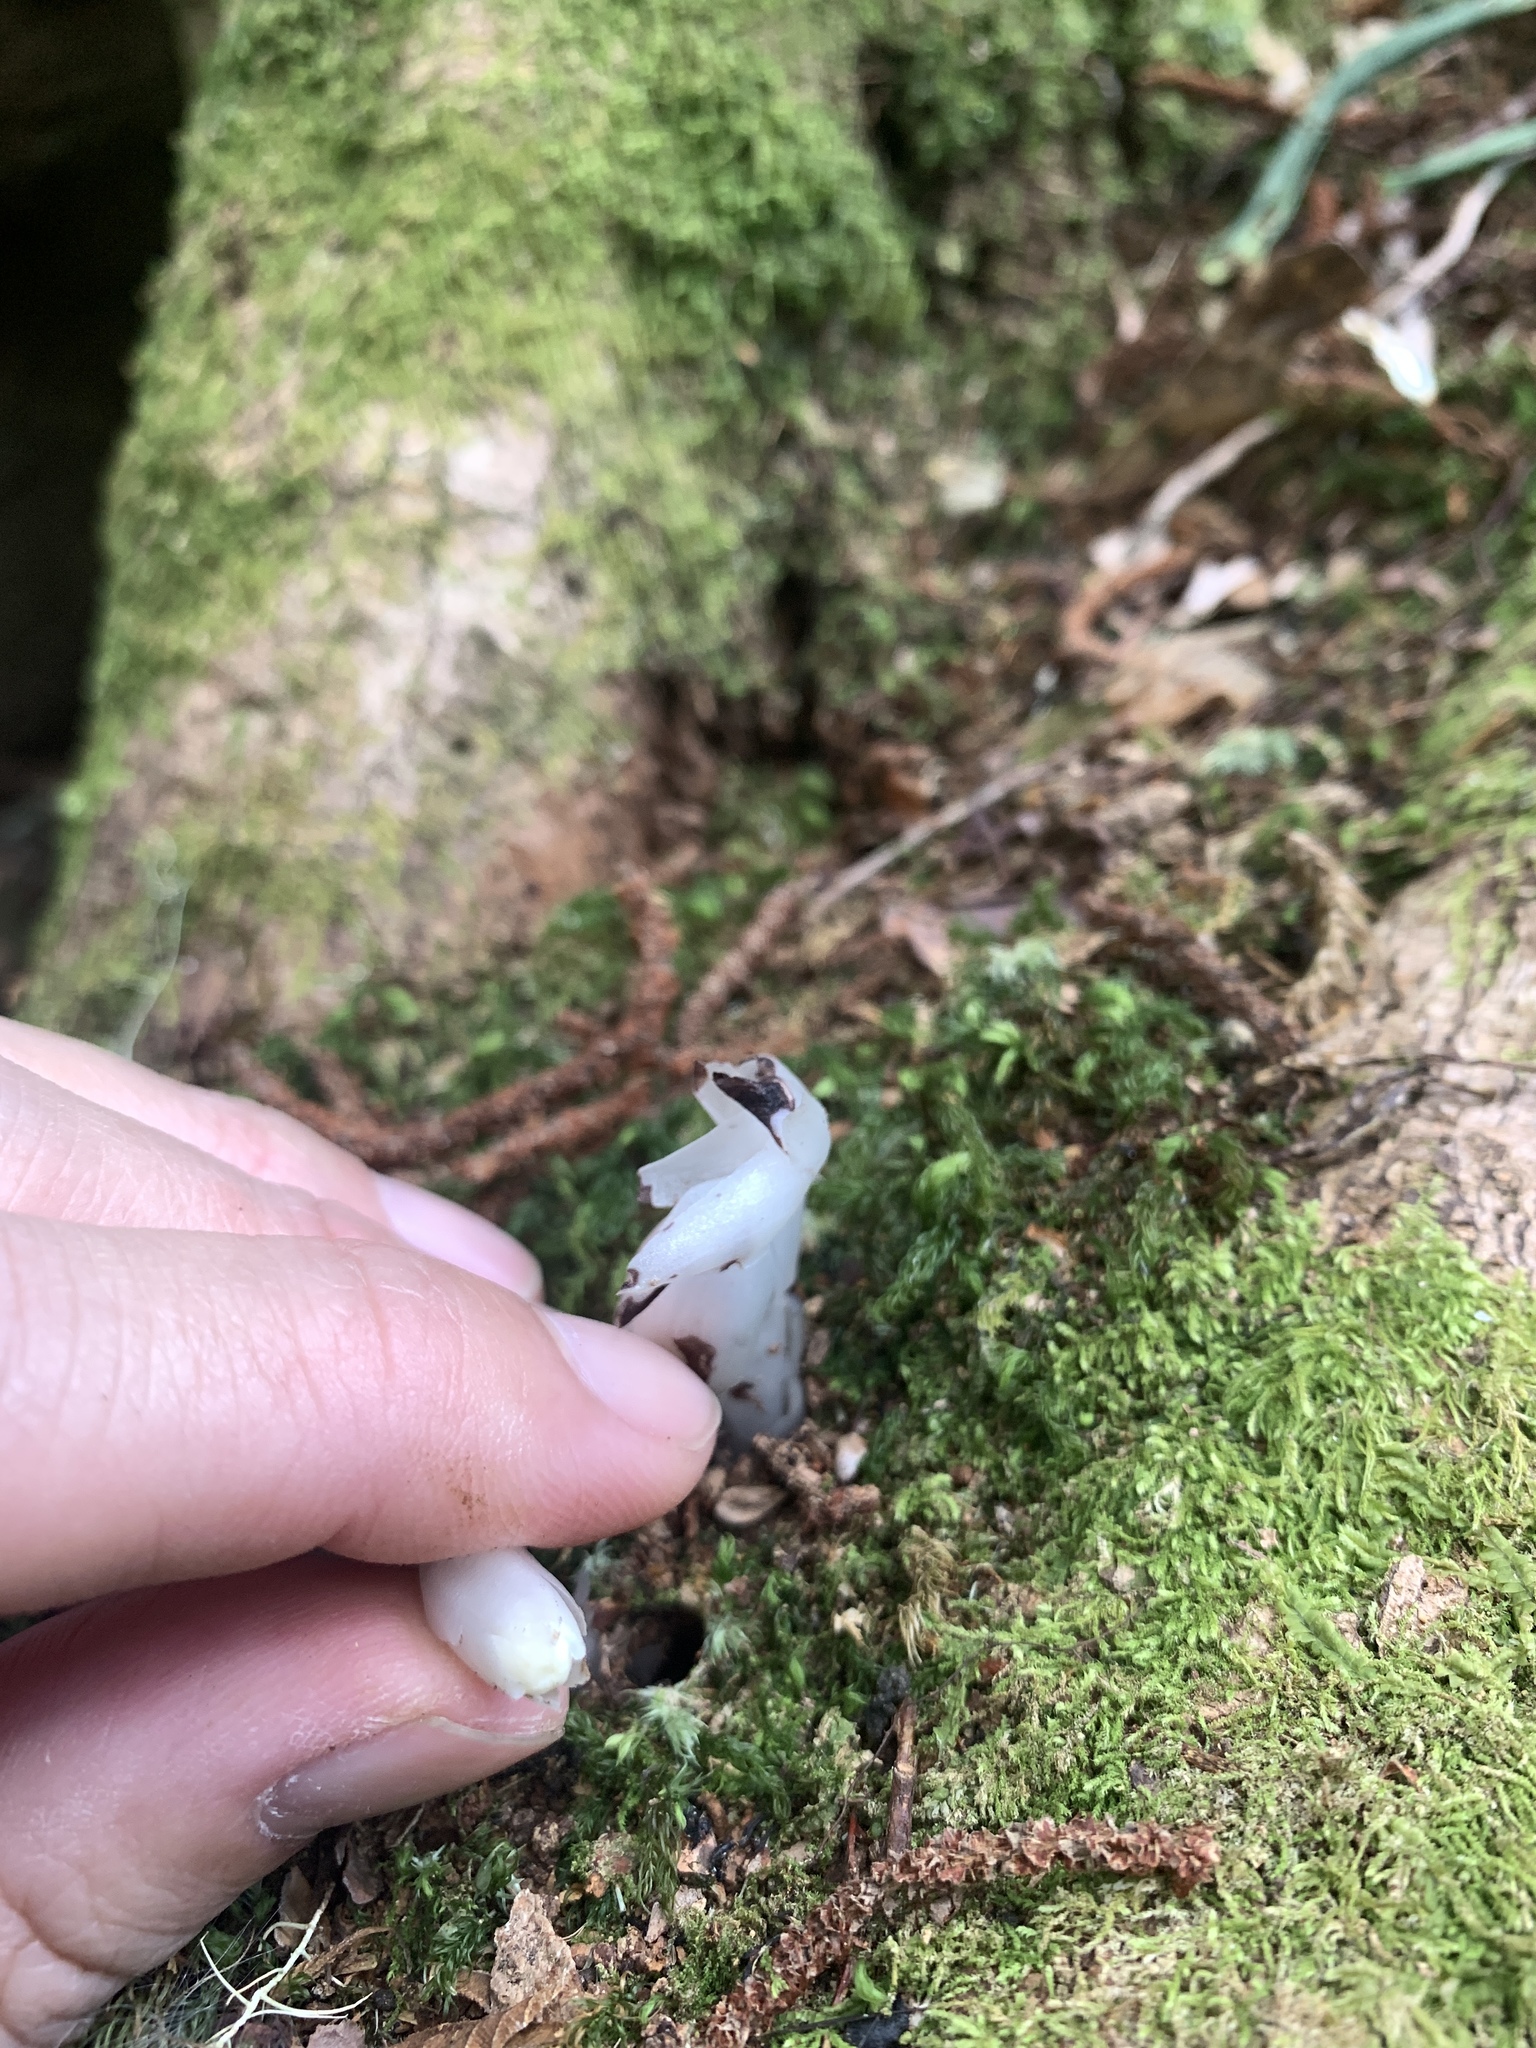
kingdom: Plantae
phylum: Tracheophyta
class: Magnoliopsida
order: Ericales
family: Ericaceae
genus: Monotropastrum
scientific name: Monotropastrum humile
